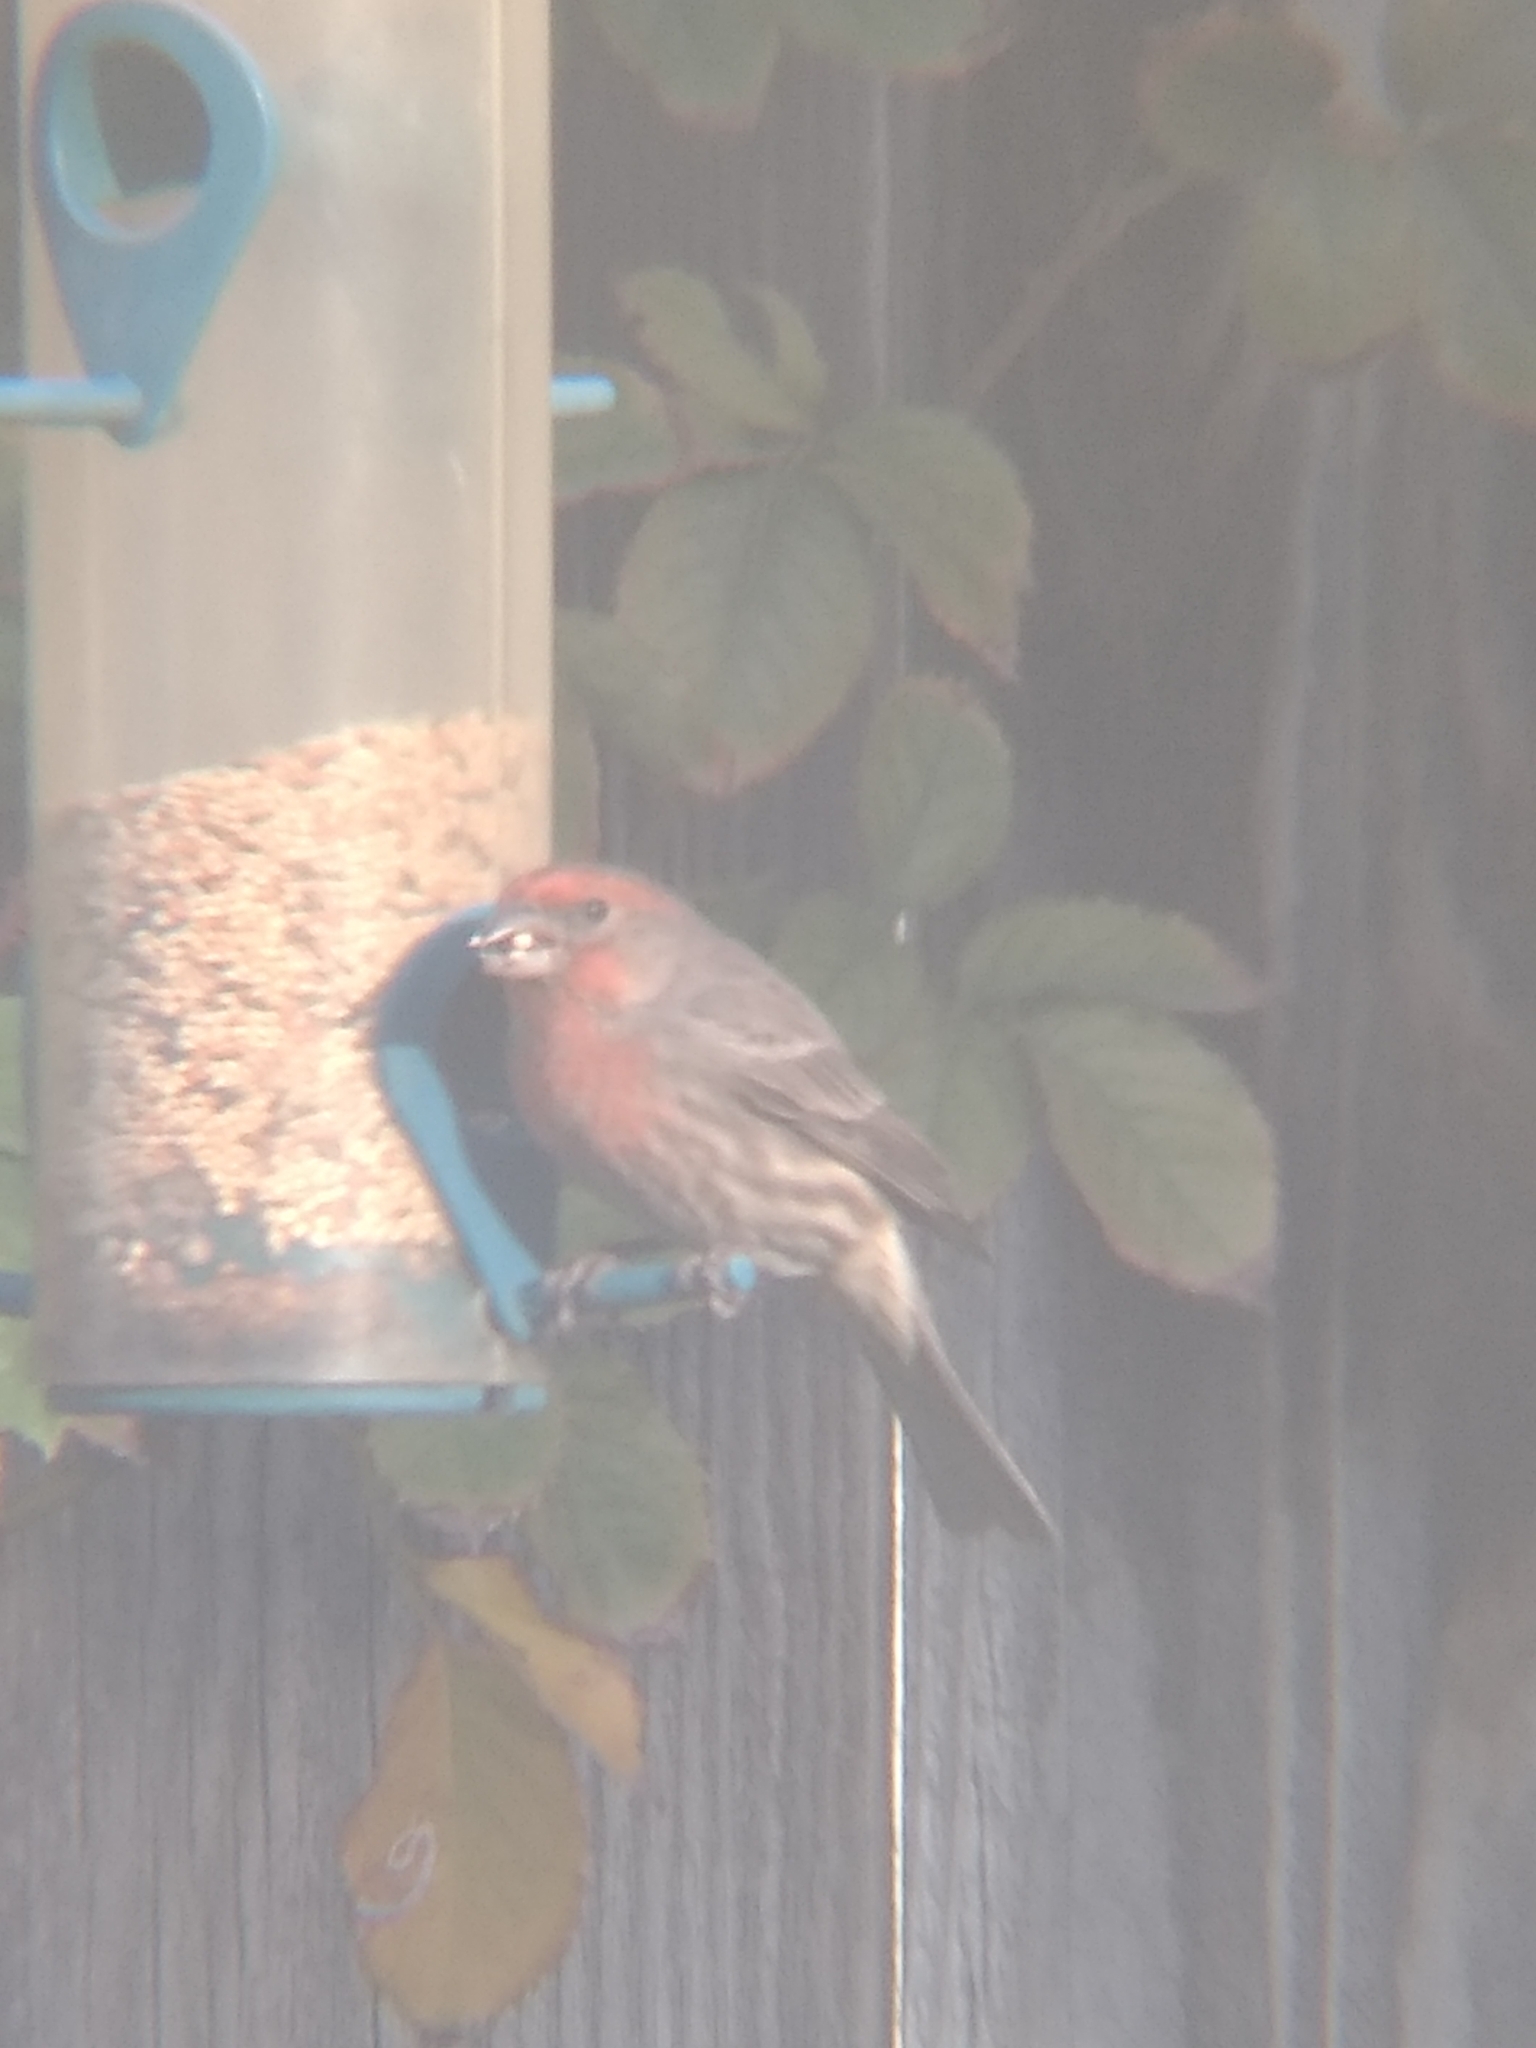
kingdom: Animalia
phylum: Chordata
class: Aves
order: Passeriformes
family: Fringillidae
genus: Haemorhous
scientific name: Haemorhous mexicanus
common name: House finch
